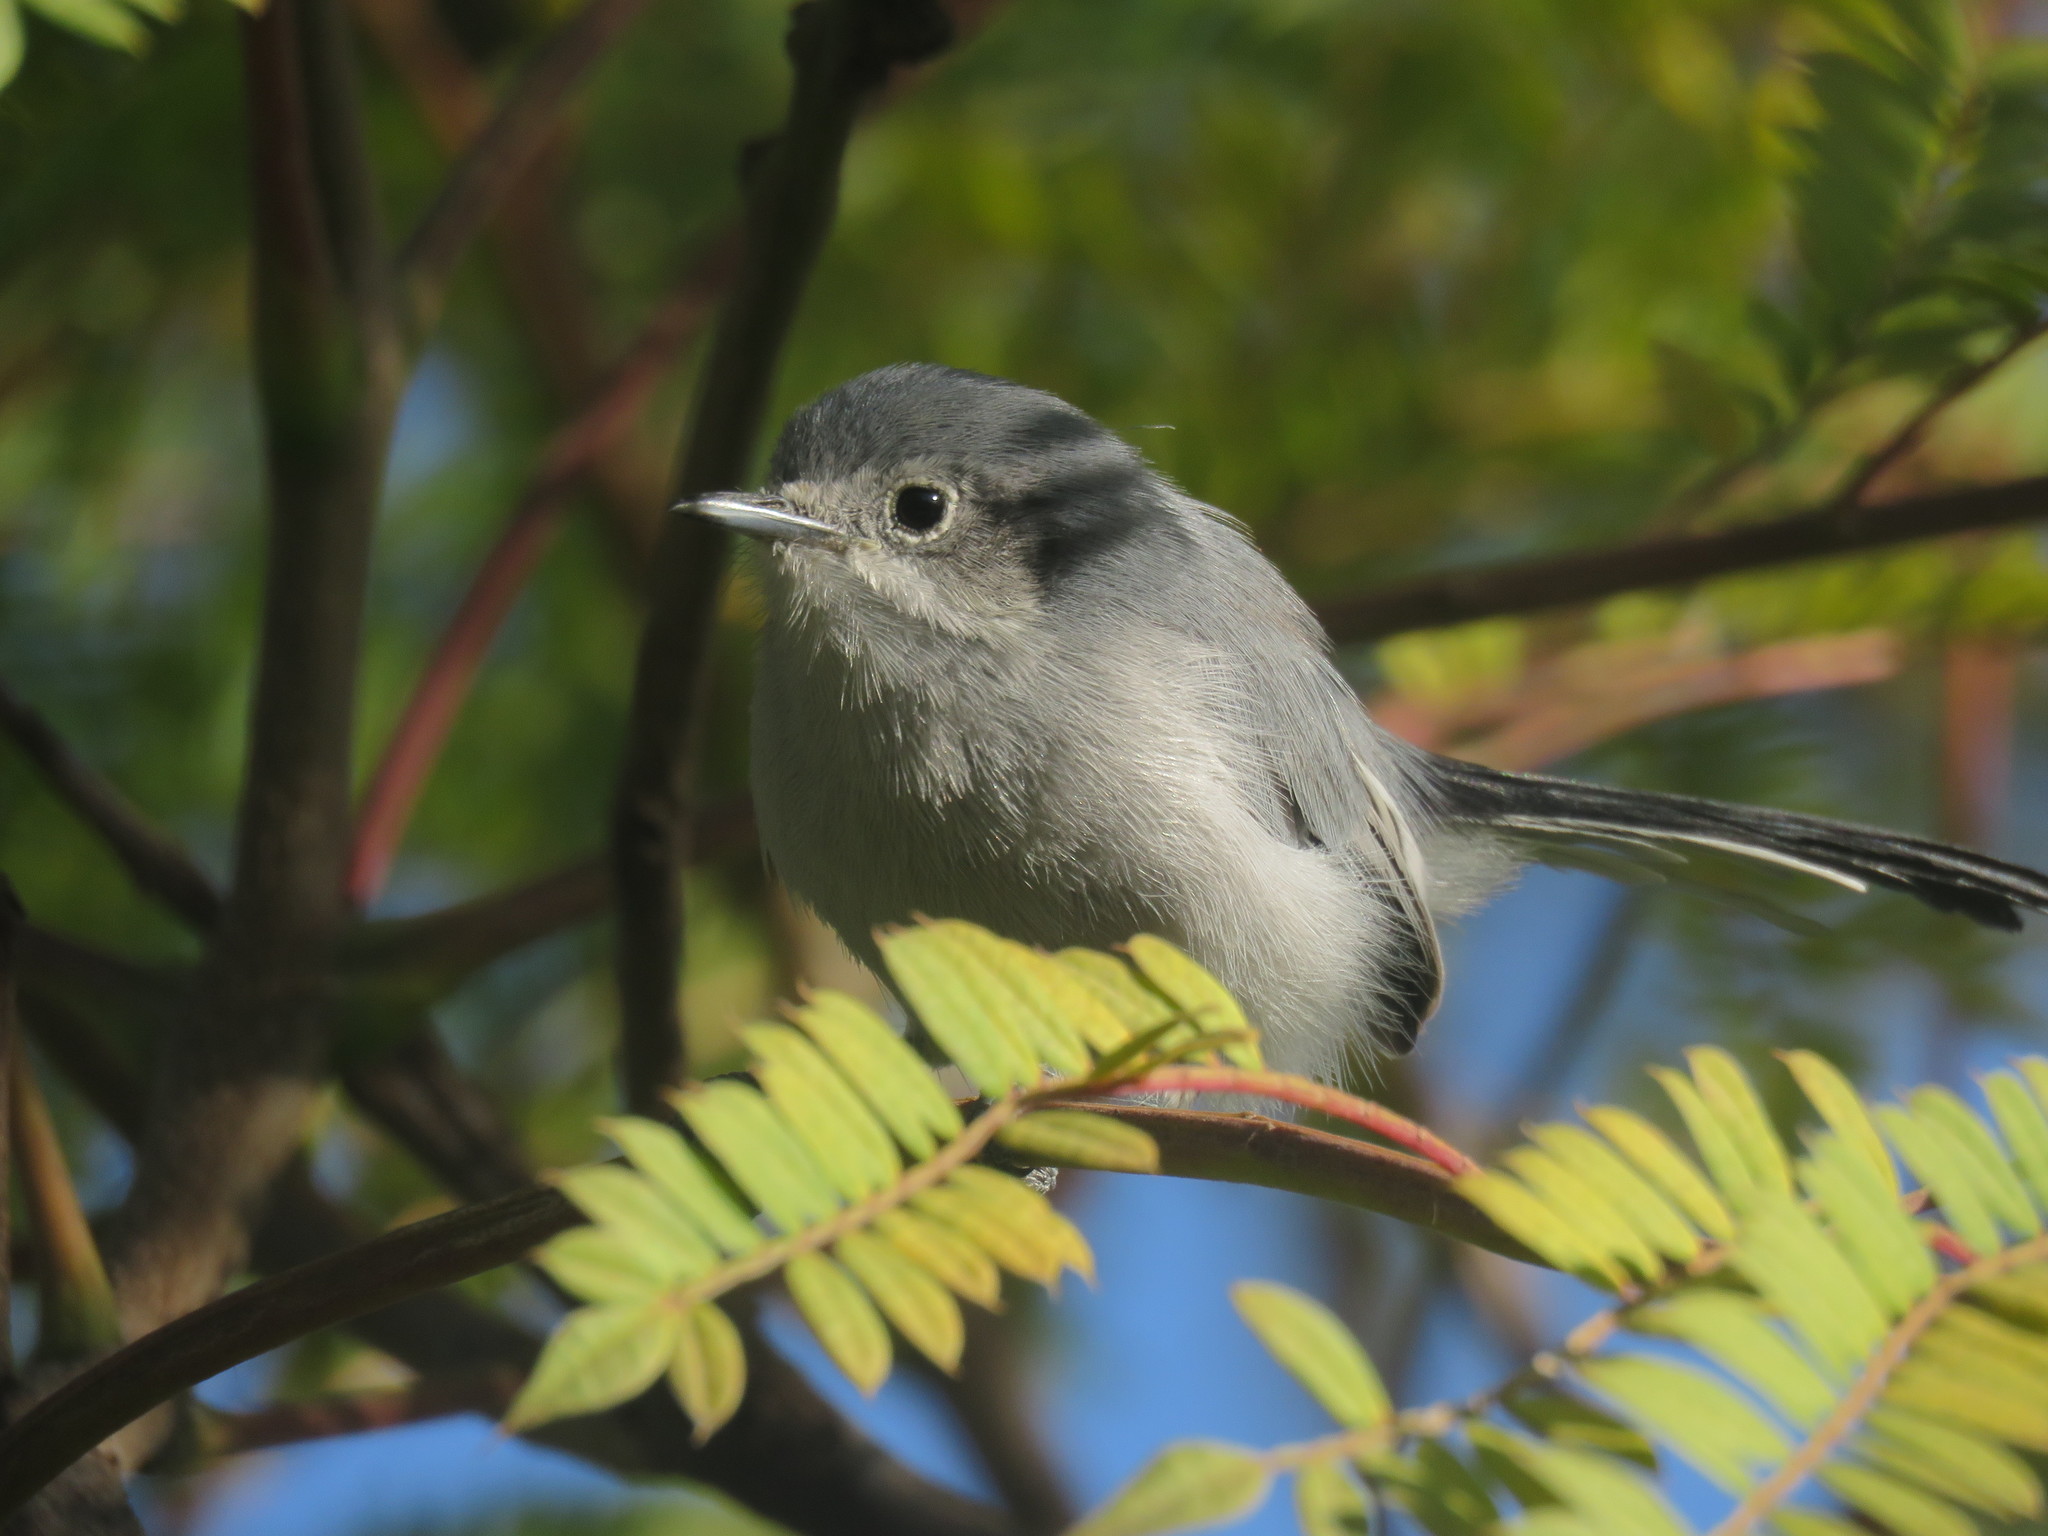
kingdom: Animalia
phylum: Chordata
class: Aves
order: Passeriformes
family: Polioptilidae
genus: Polioptila
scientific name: Polioptila dumicola
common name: Masked gnatcatcher
